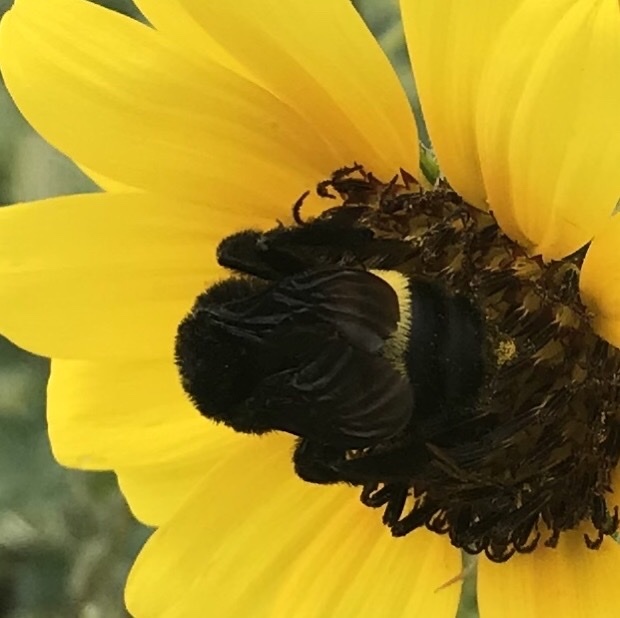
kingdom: Animalia
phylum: Arthropoda
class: Insecta
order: Hymenoptera
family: Apidae
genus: Bombus
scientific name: Bombus pensylvanicus
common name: Bumble bee
